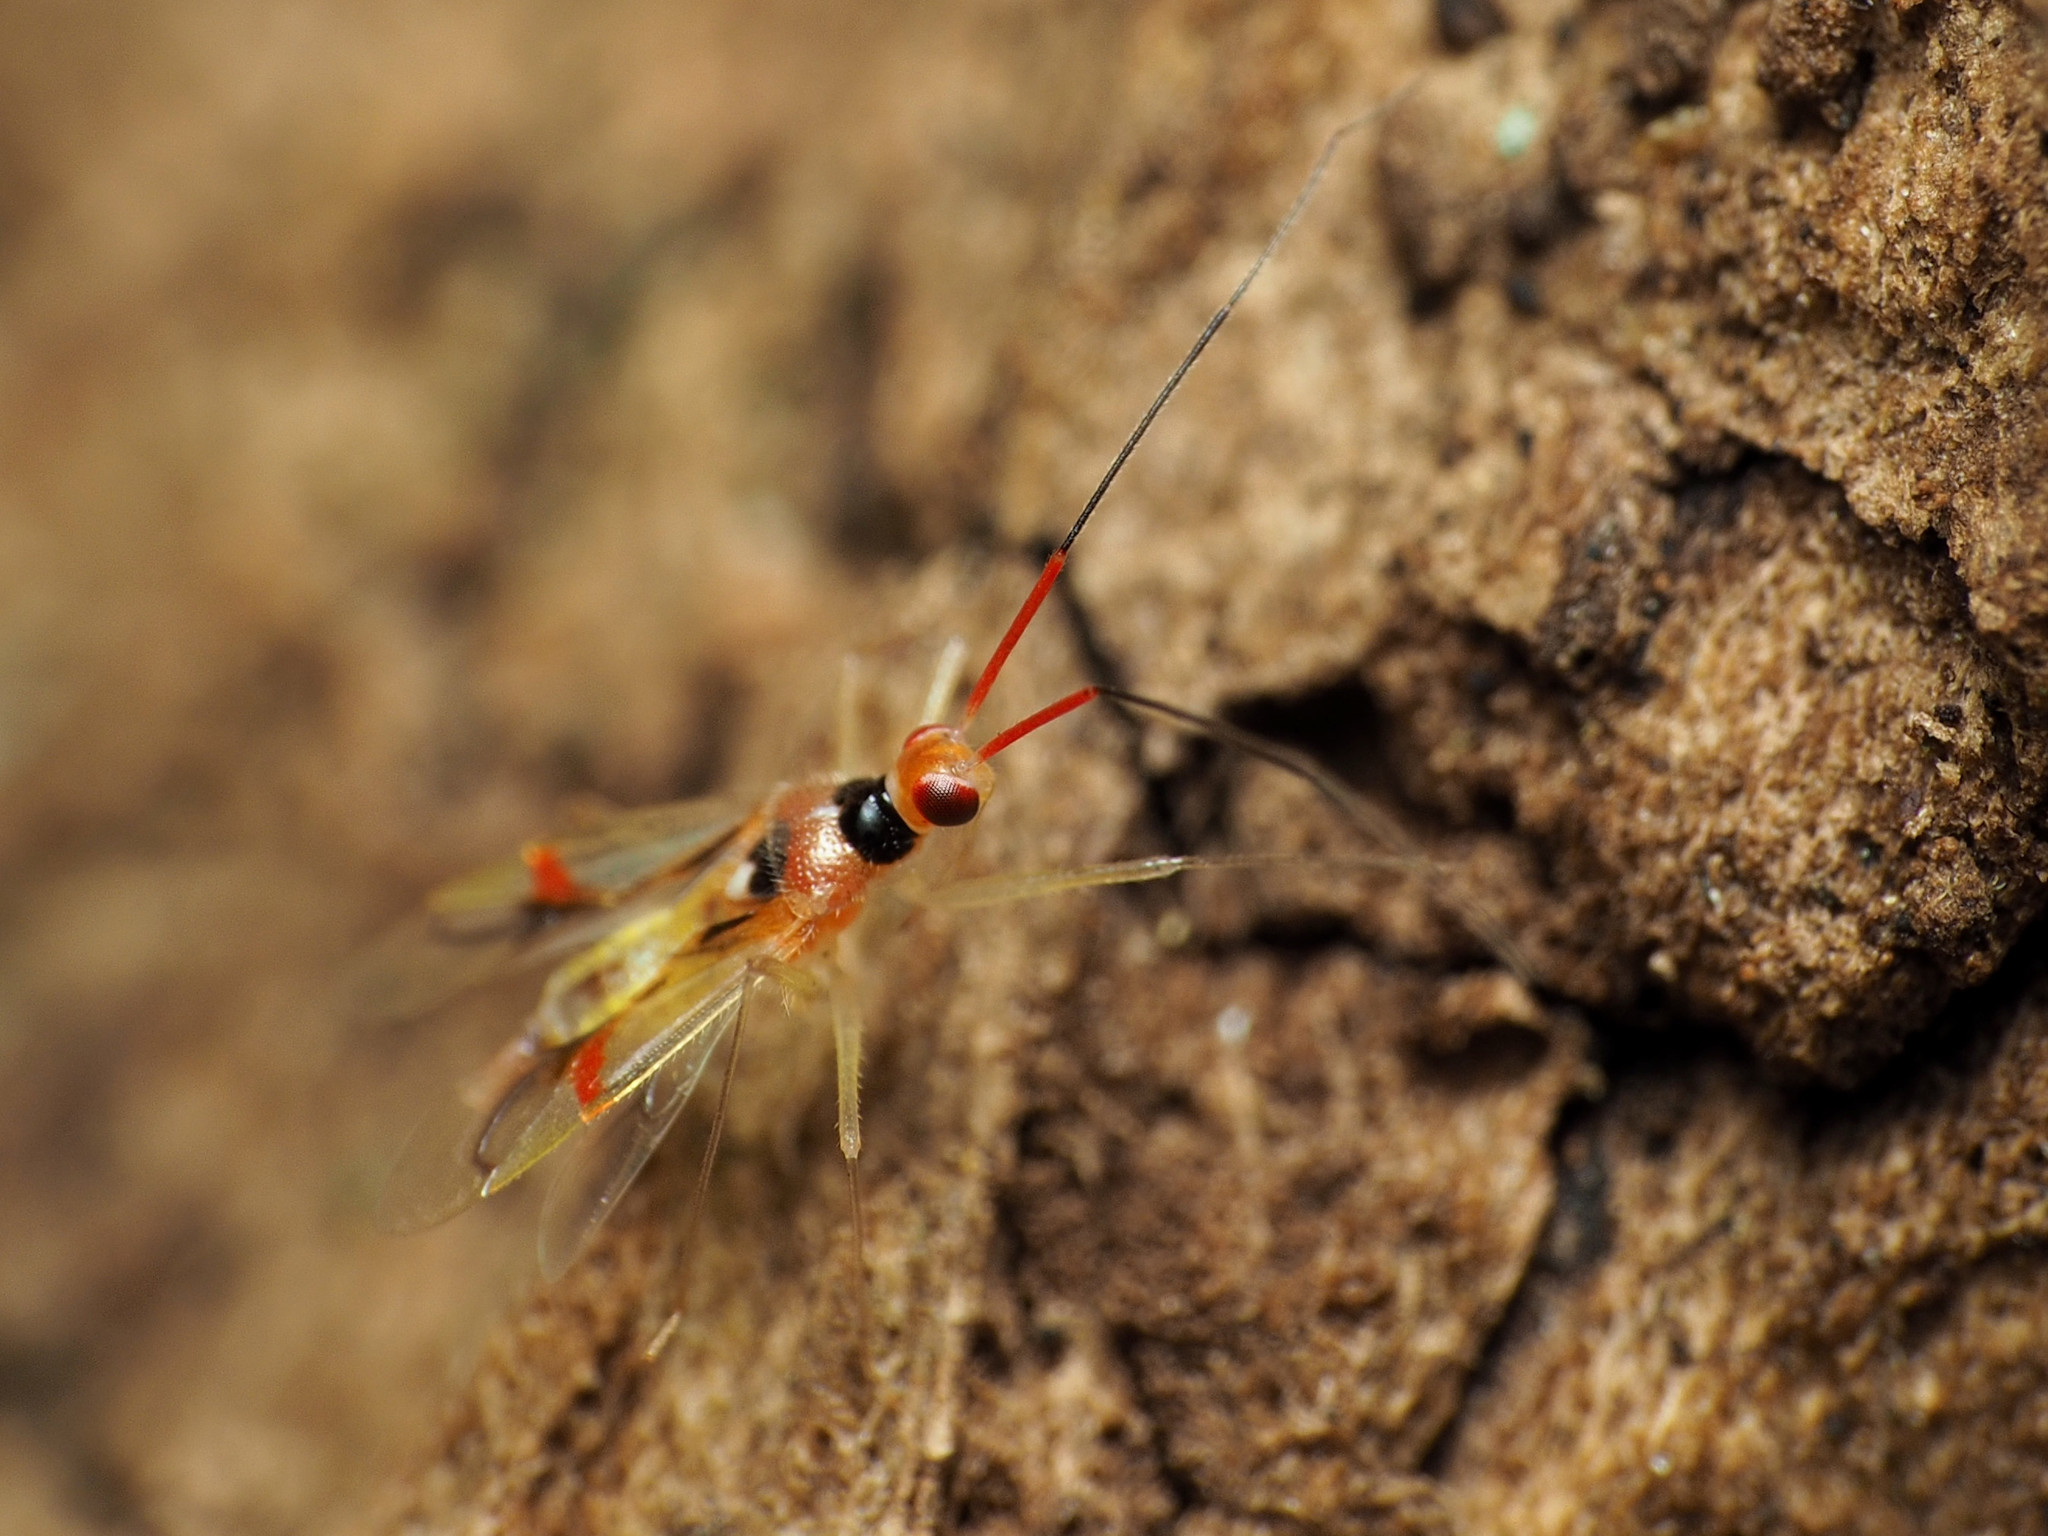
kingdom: Animalia
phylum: Arthropoda
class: Insecta
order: Hemiptera
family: Miridae
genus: Hyaliodes
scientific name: Hyaliodes harti
